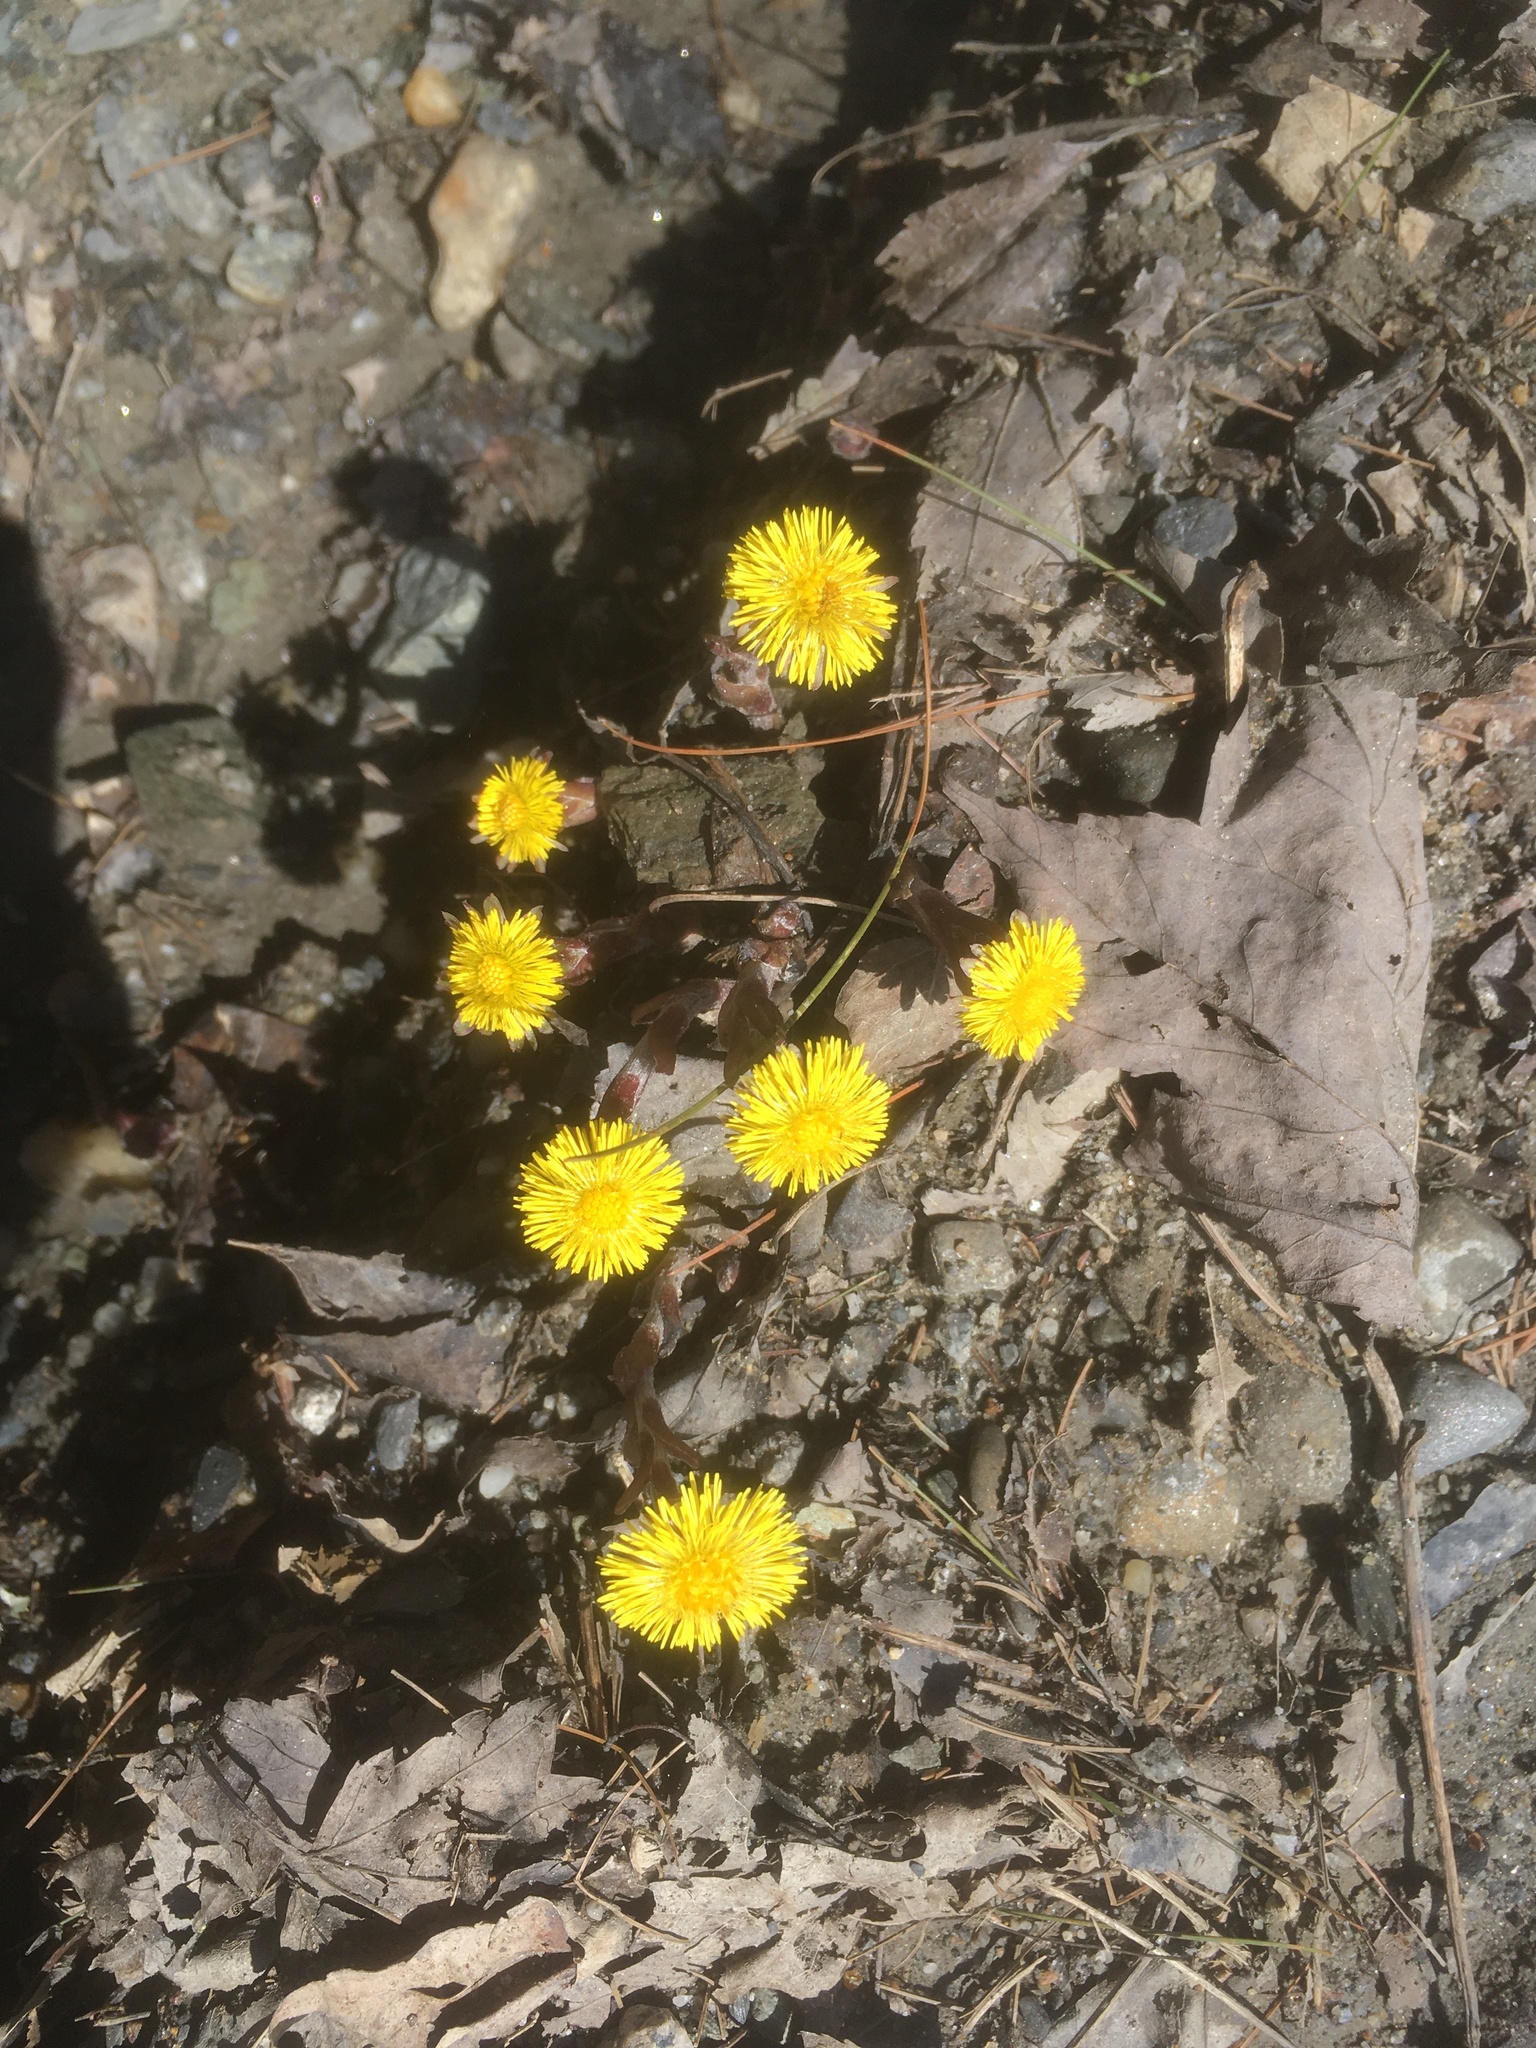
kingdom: Plantae
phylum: Tracheophyta
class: Magnoliopsida
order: Asterales
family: Asteraceae
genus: Tussilago
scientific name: Tussilago farfara
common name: Coltsfoot
